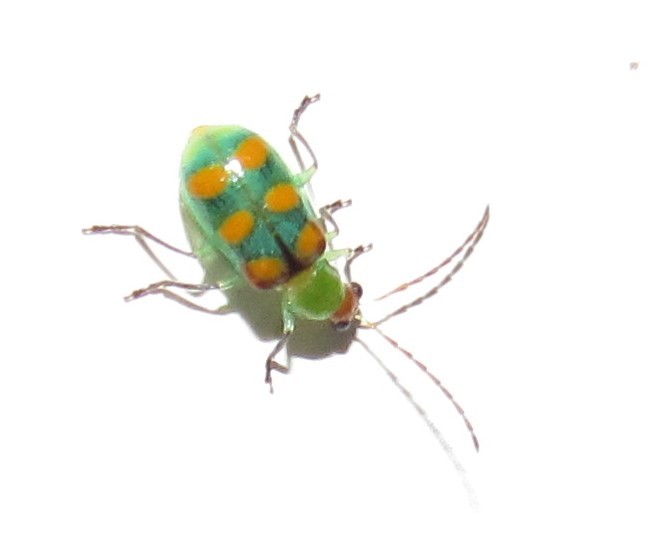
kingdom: Animalia
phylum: Arthropoda
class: Insecta
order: Coleoptera
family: Chrysomelidae
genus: Diabrotica
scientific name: Diabrotica speciosa
